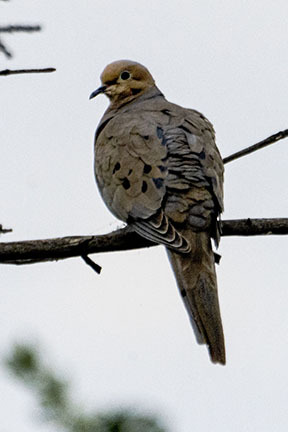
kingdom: Animalia
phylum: Chordata
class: Aves
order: Columbiformes
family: Columbidae
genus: Zenaida
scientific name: Zenaida macroura
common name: Mourning dove
